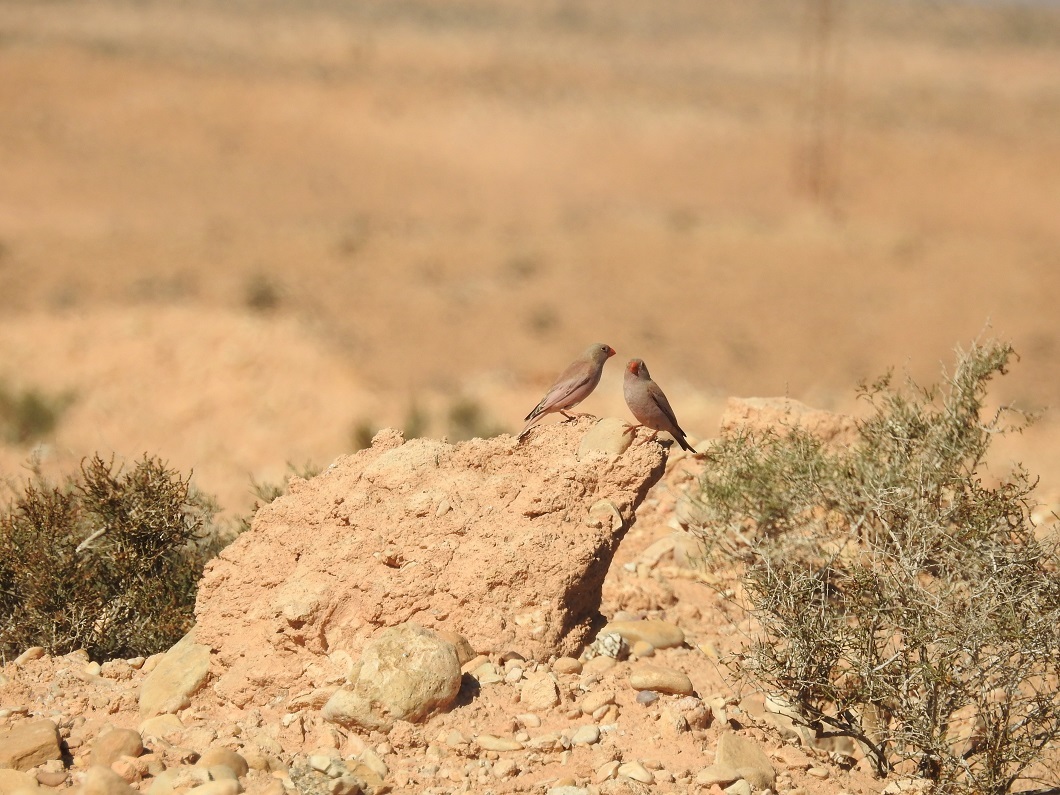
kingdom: Animalia
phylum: Chordata
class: Aves
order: Passeriformes
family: Fringillidae
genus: Bucanetes
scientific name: Bucanetes githagineus
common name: Trumpeter finch
